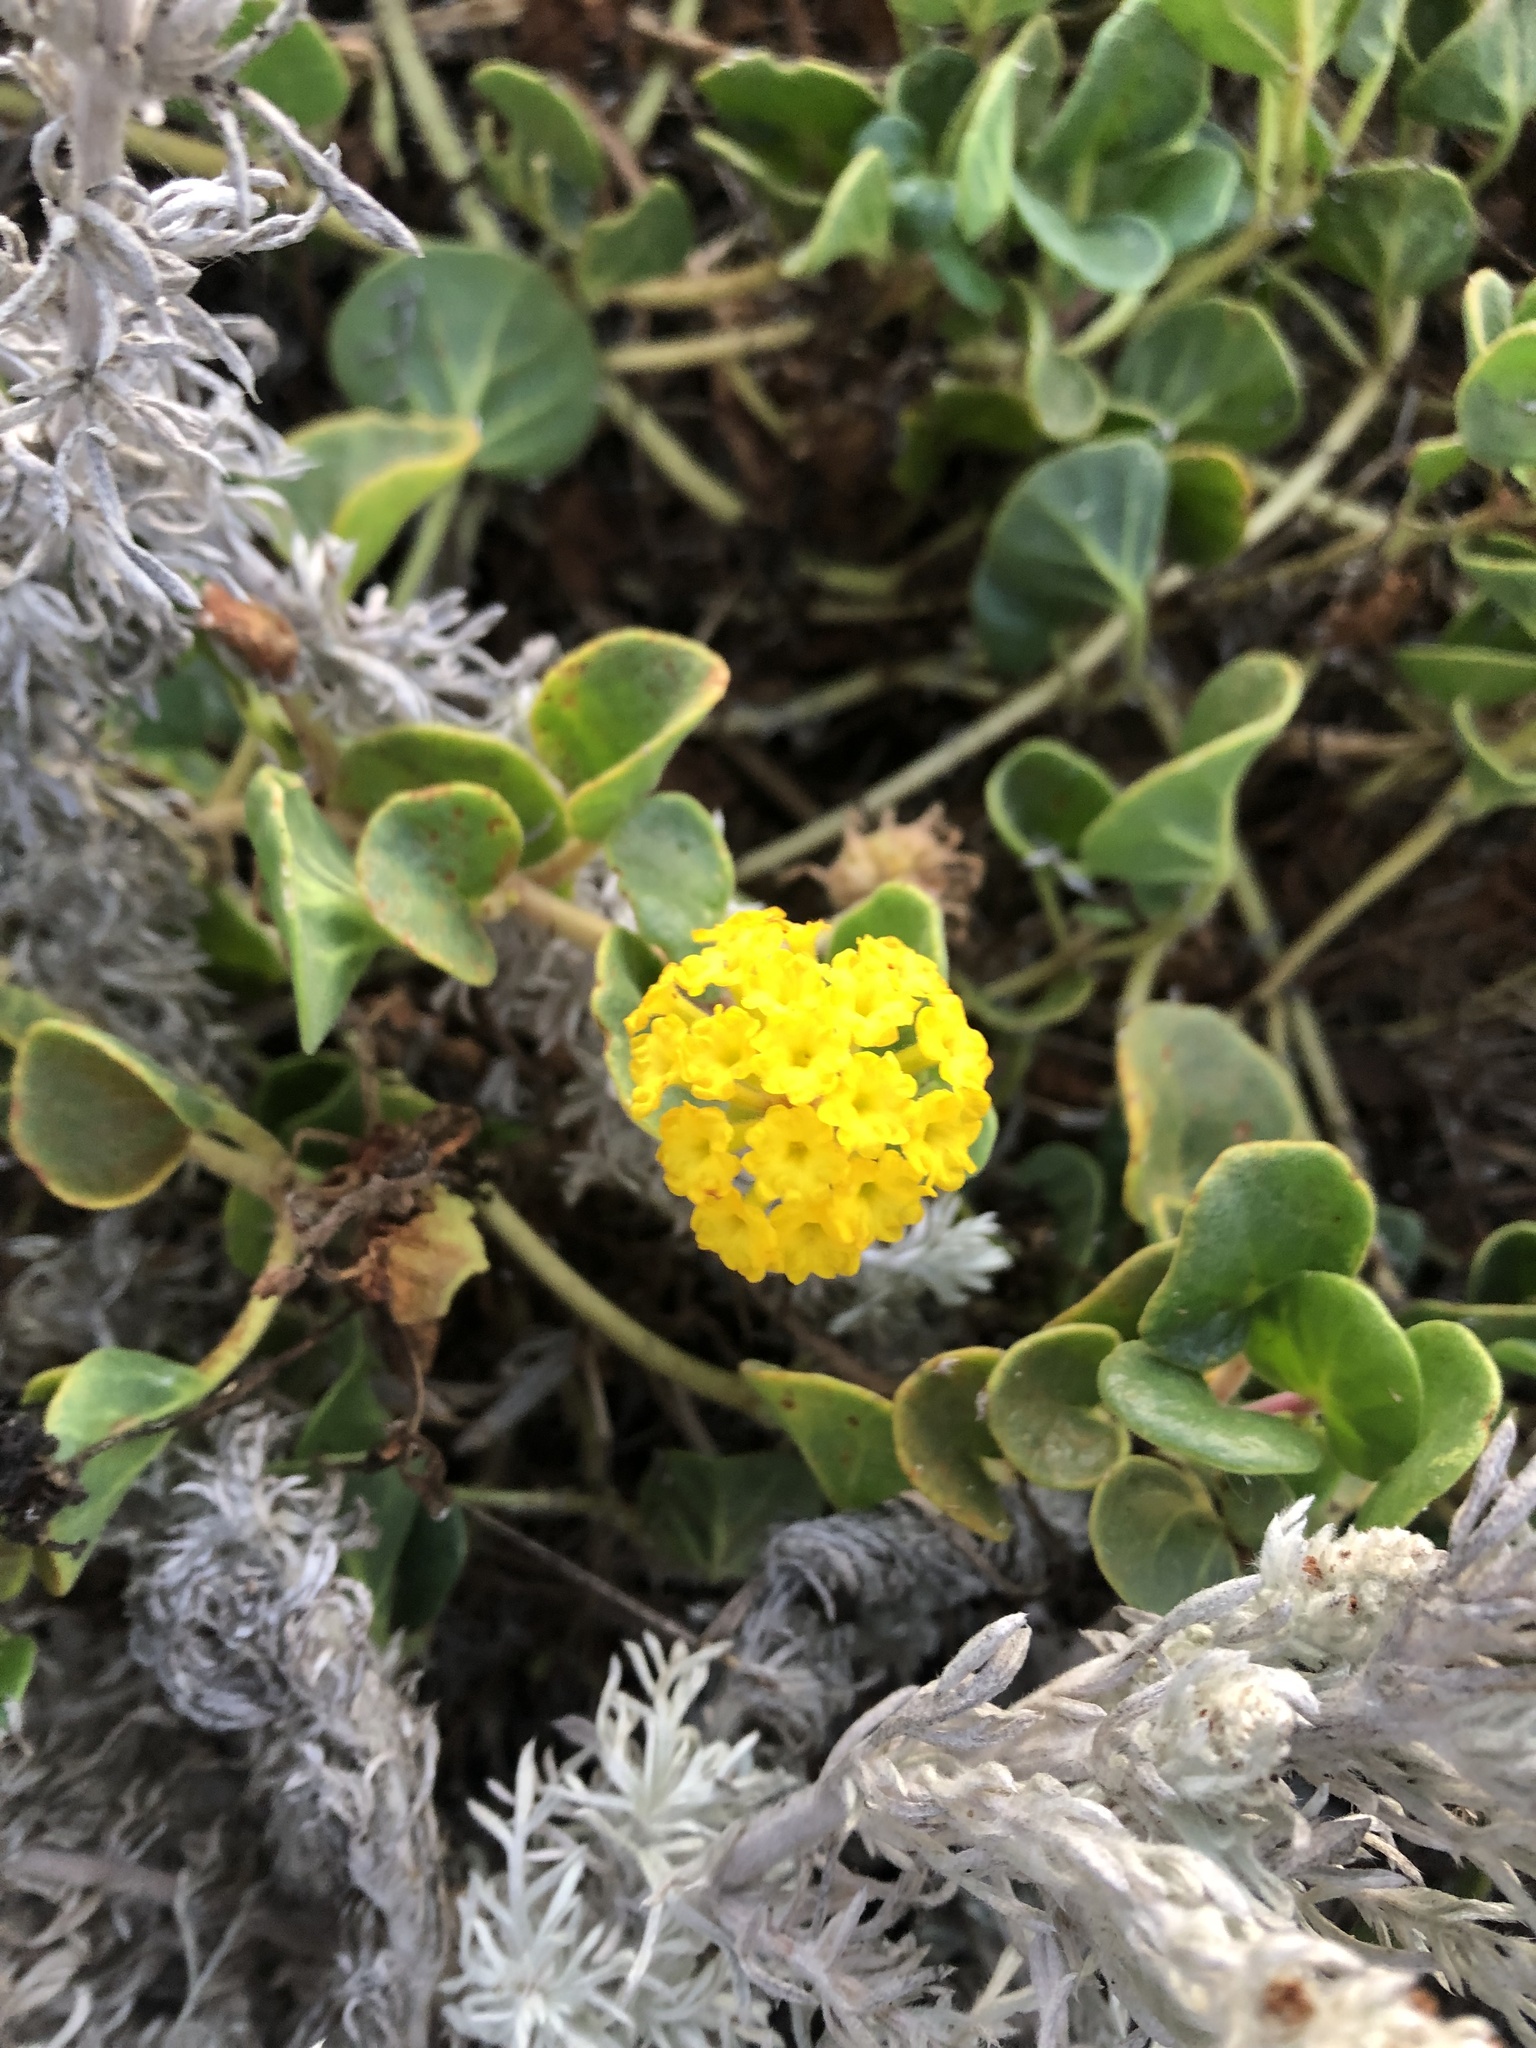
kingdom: Plantae
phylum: Tracheophyta
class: Magnoliopsida
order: Caryophyllales
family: Nyctaginaceae
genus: Abronia
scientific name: Abronia latifolia
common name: Yellow sand-verbena
